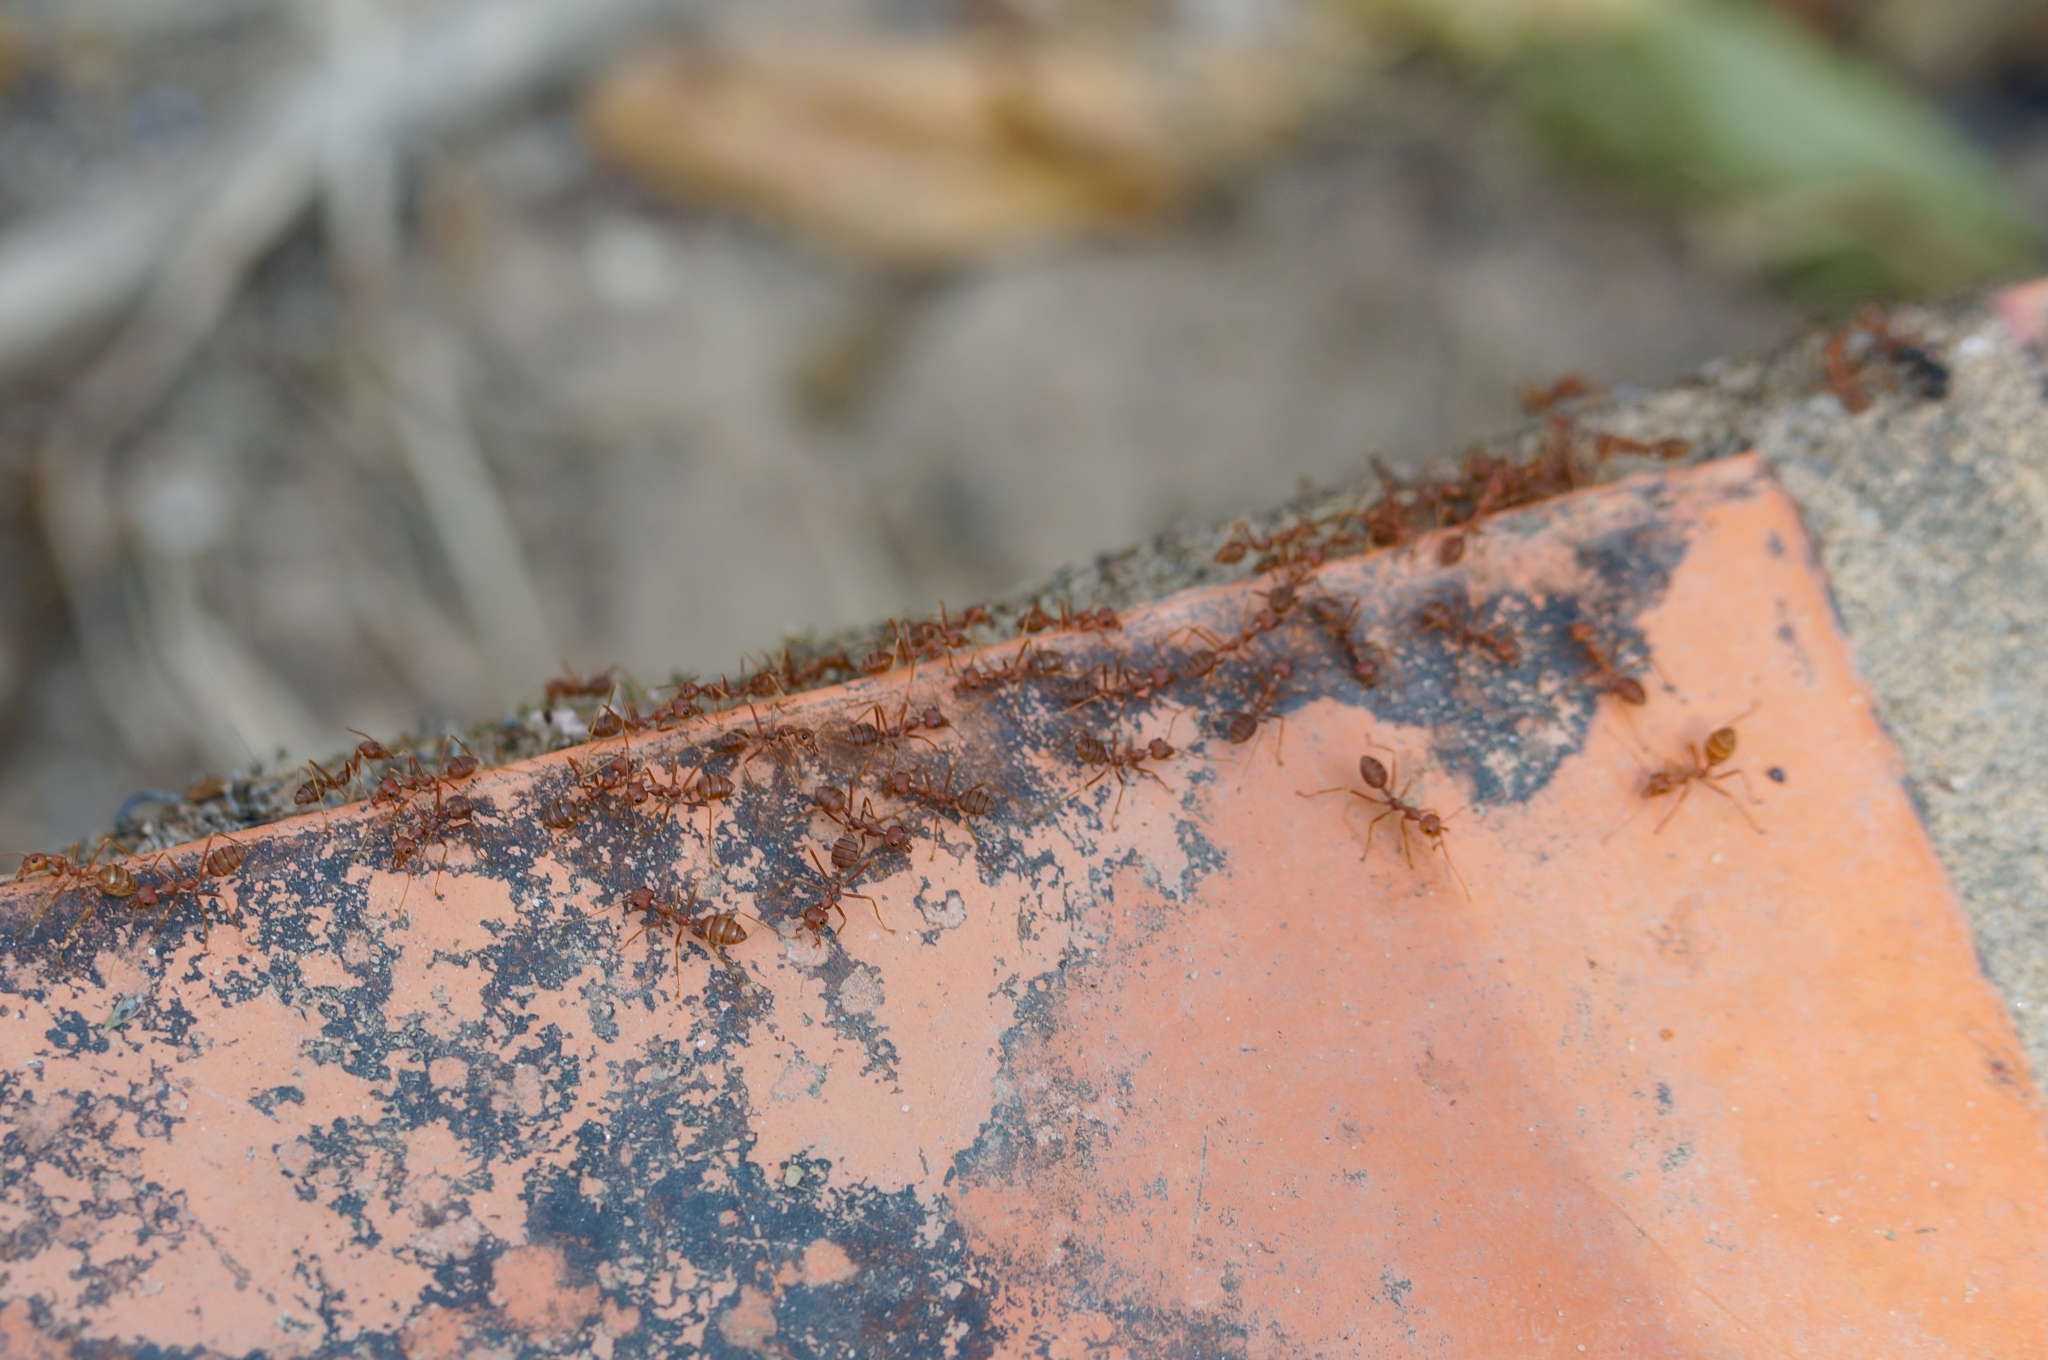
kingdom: Animalia
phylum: Arthropoda
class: Insecta
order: Hymenoptera
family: Formicidae
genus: Oecophylla
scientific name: Oecophylla smaragdina
